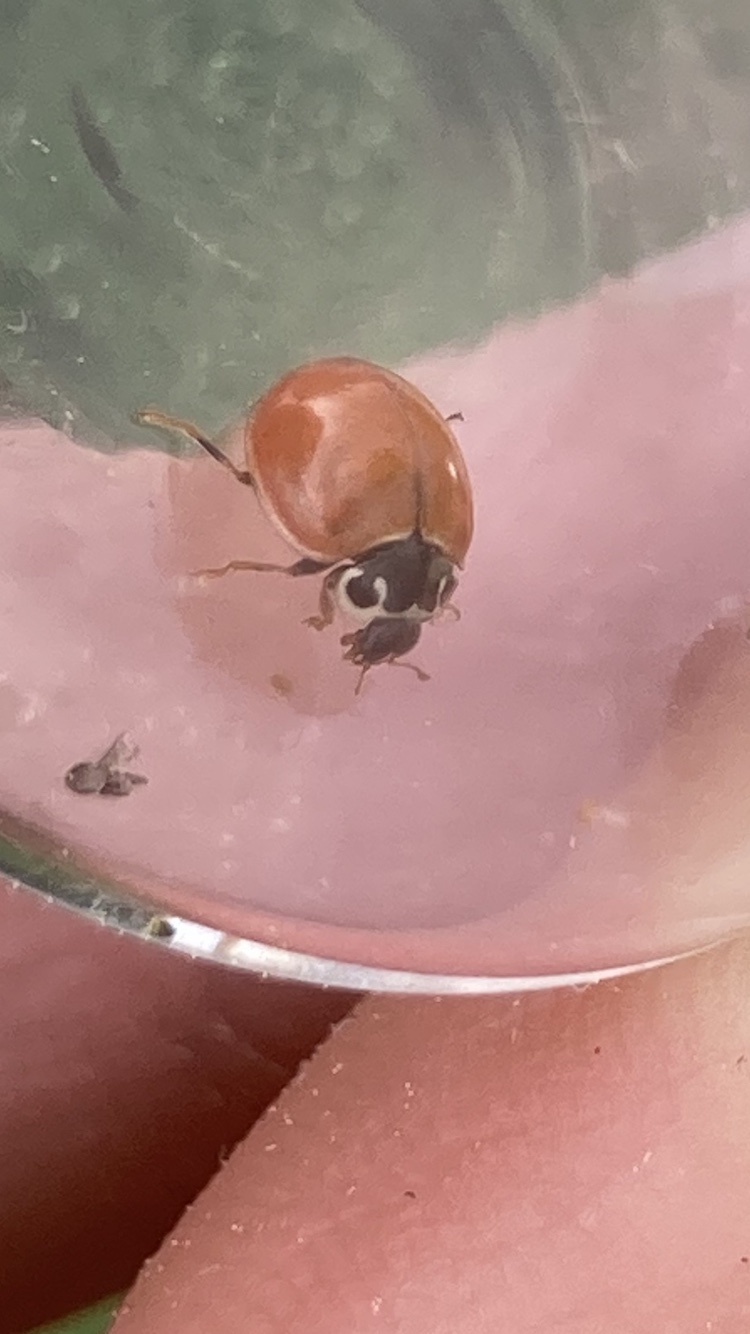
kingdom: Animalia
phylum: Arthropoda
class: Insecta
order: Coleoptera
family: Coccinellidae
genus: Cycloneda
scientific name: Cycloneda munda
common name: Polished lady beetle
